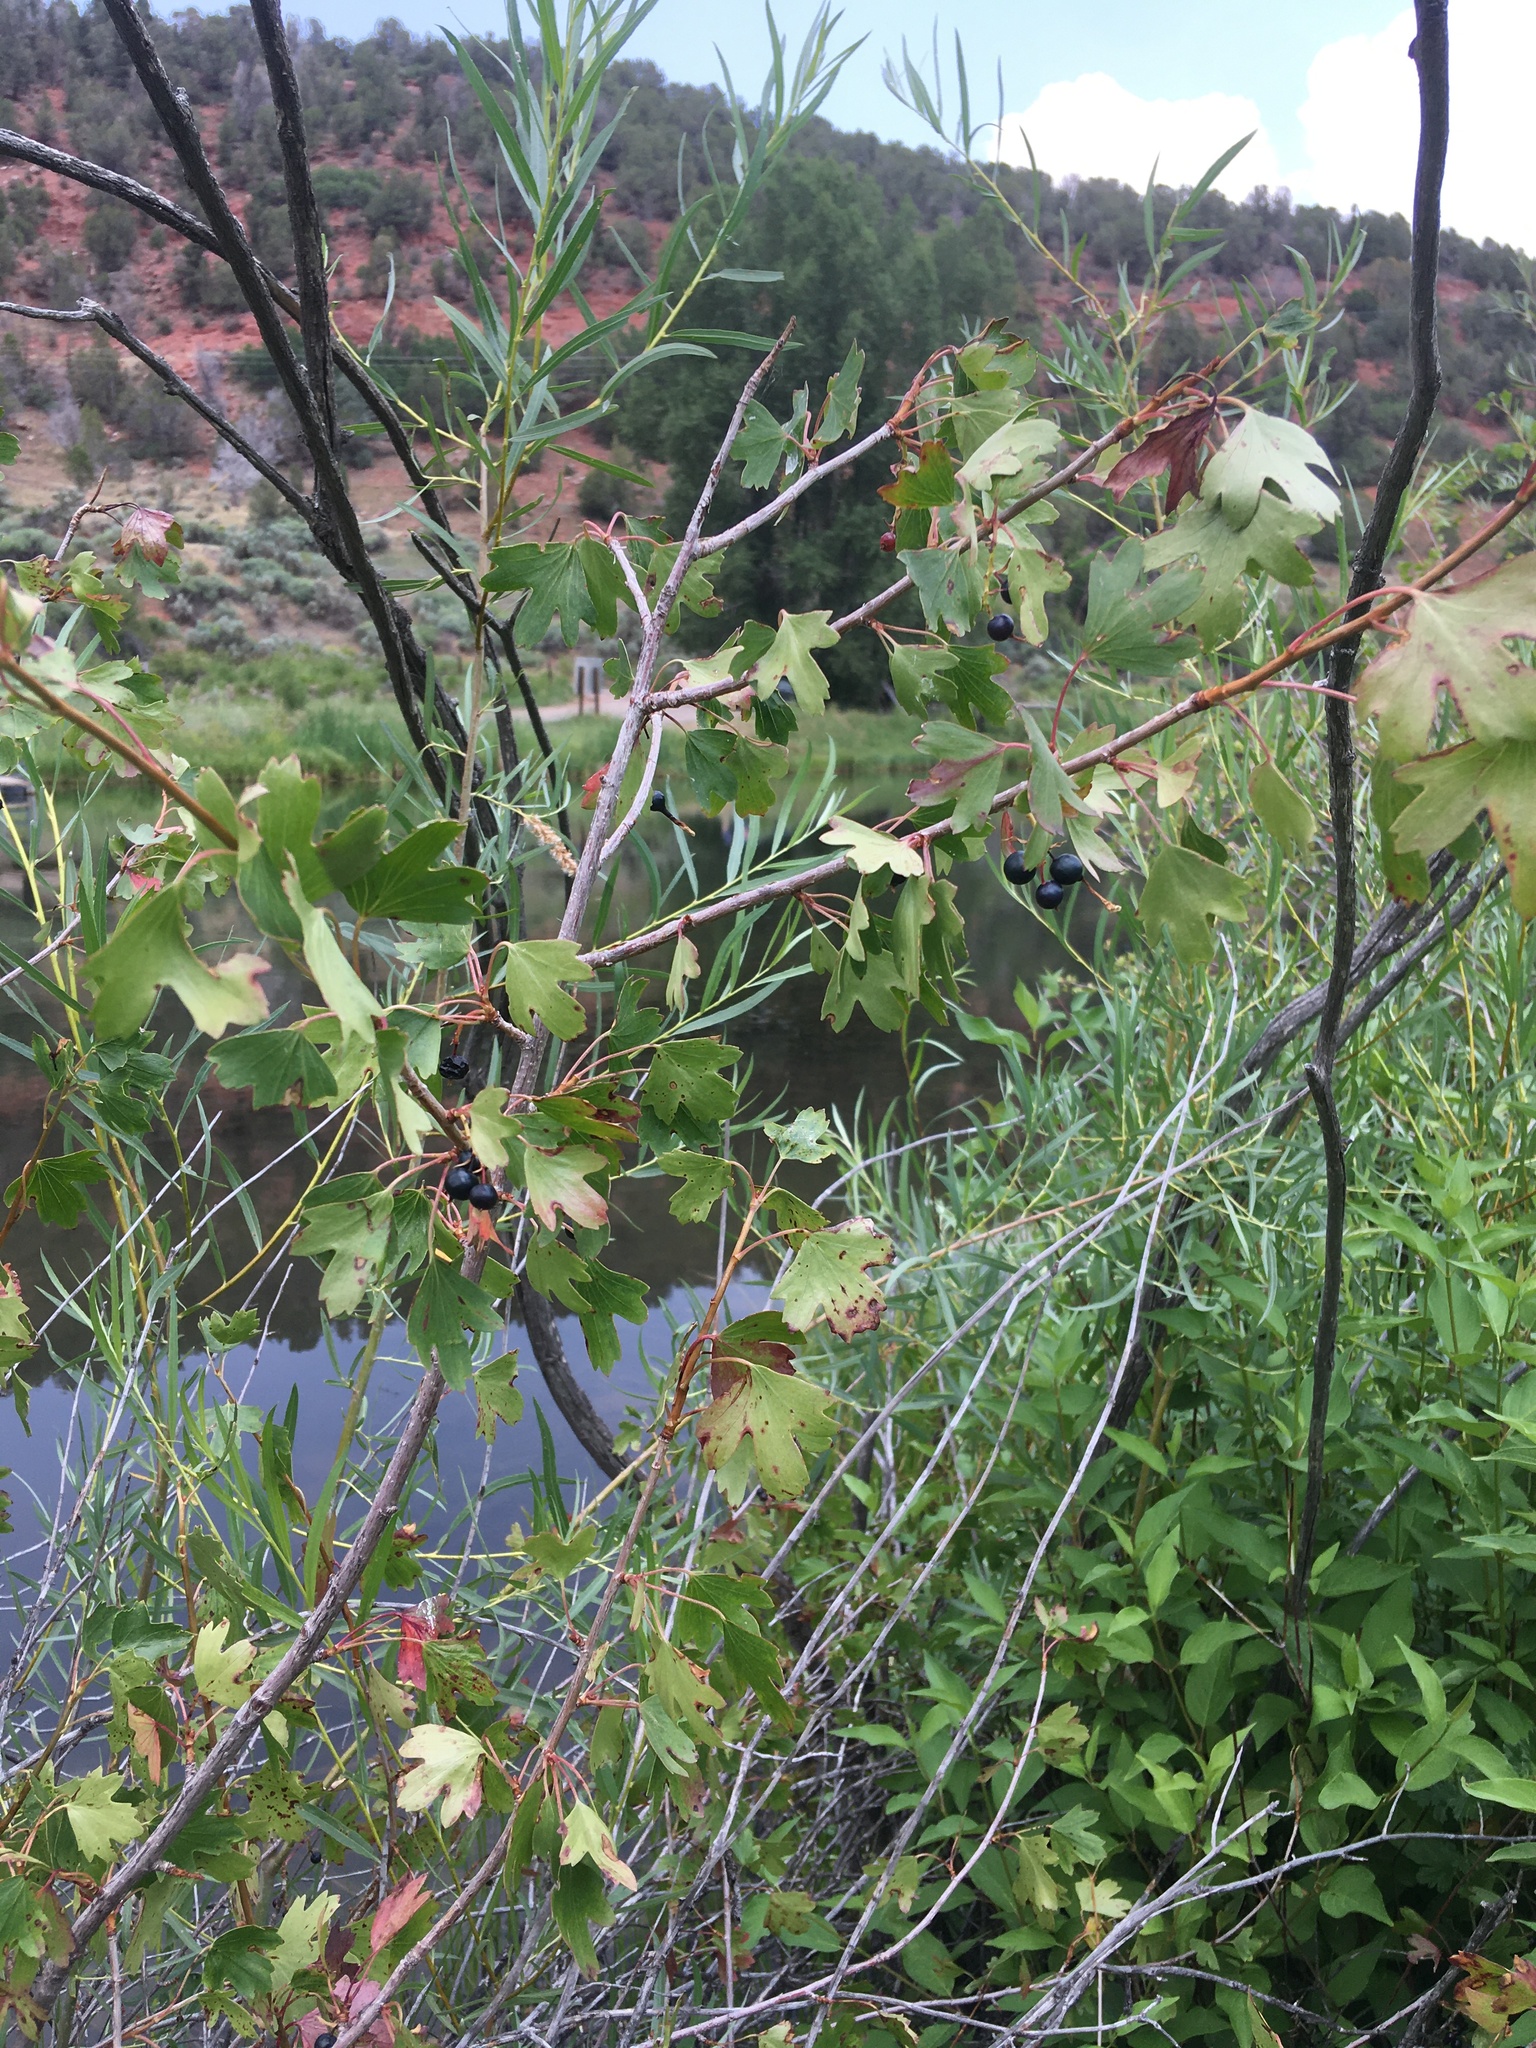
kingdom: Plantae
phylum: Tracheophyta
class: Magnoliopsida
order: Saxifragales
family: Grossulariaceae
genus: Ribes
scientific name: Ribes aureum
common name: Golden currant
